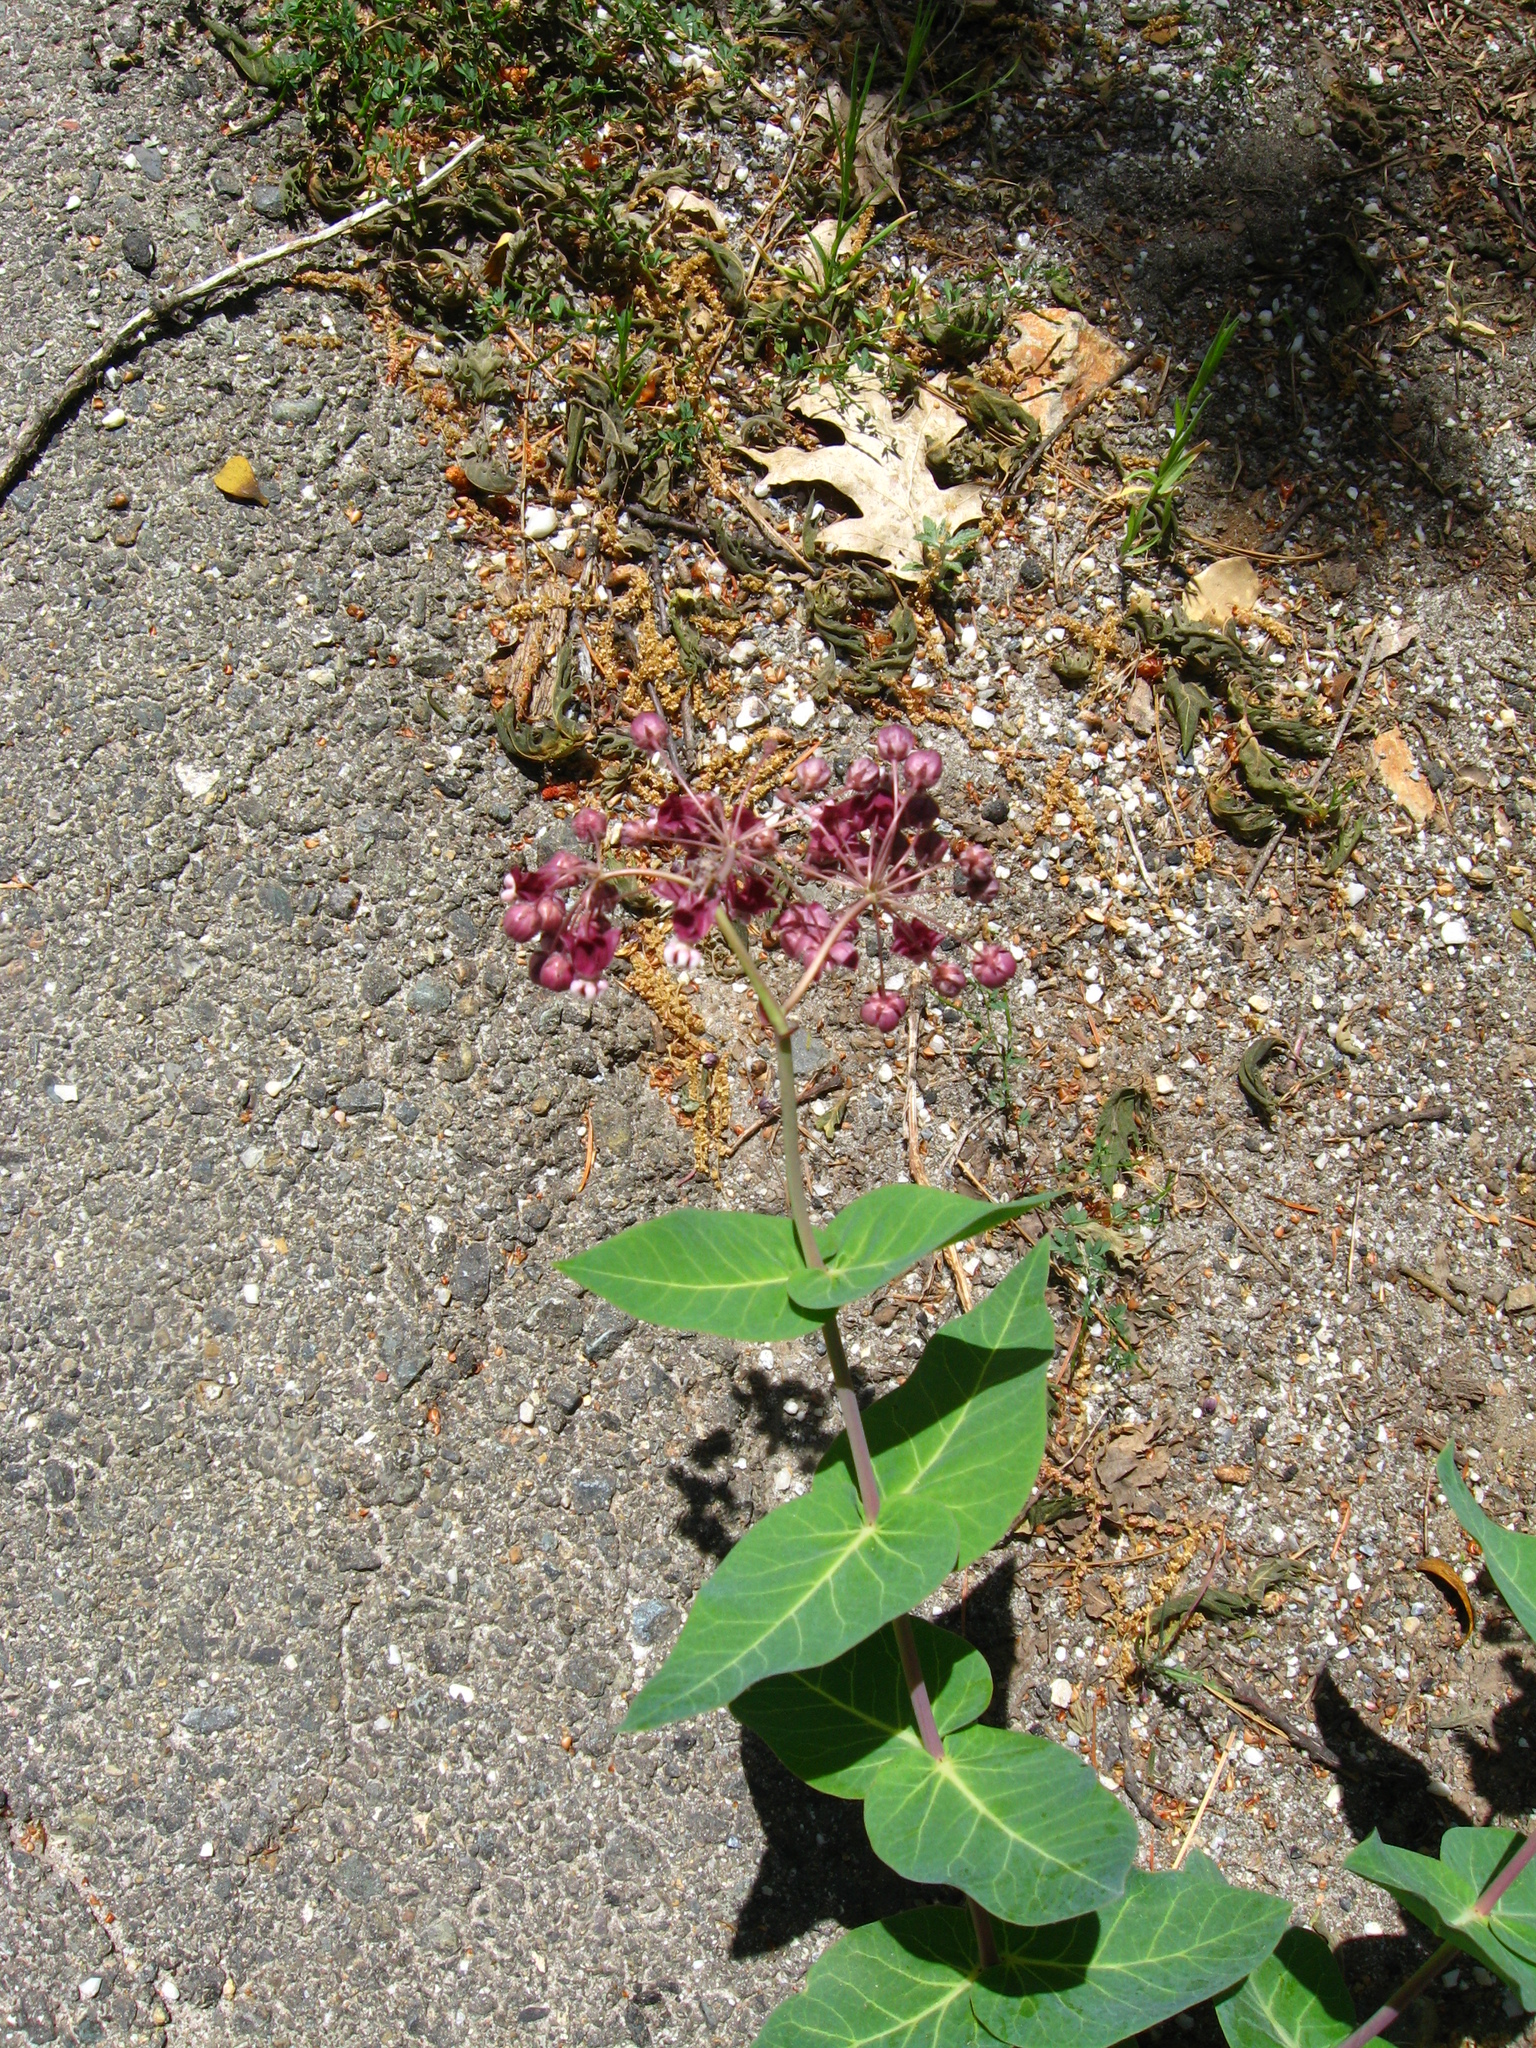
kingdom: Plantae
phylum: Tracheophyta
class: Magnoliopsida
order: Gentianales
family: Apocynaceae
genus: Asclepias
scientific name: Asclepias cordifolia
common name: Purple milkweed
